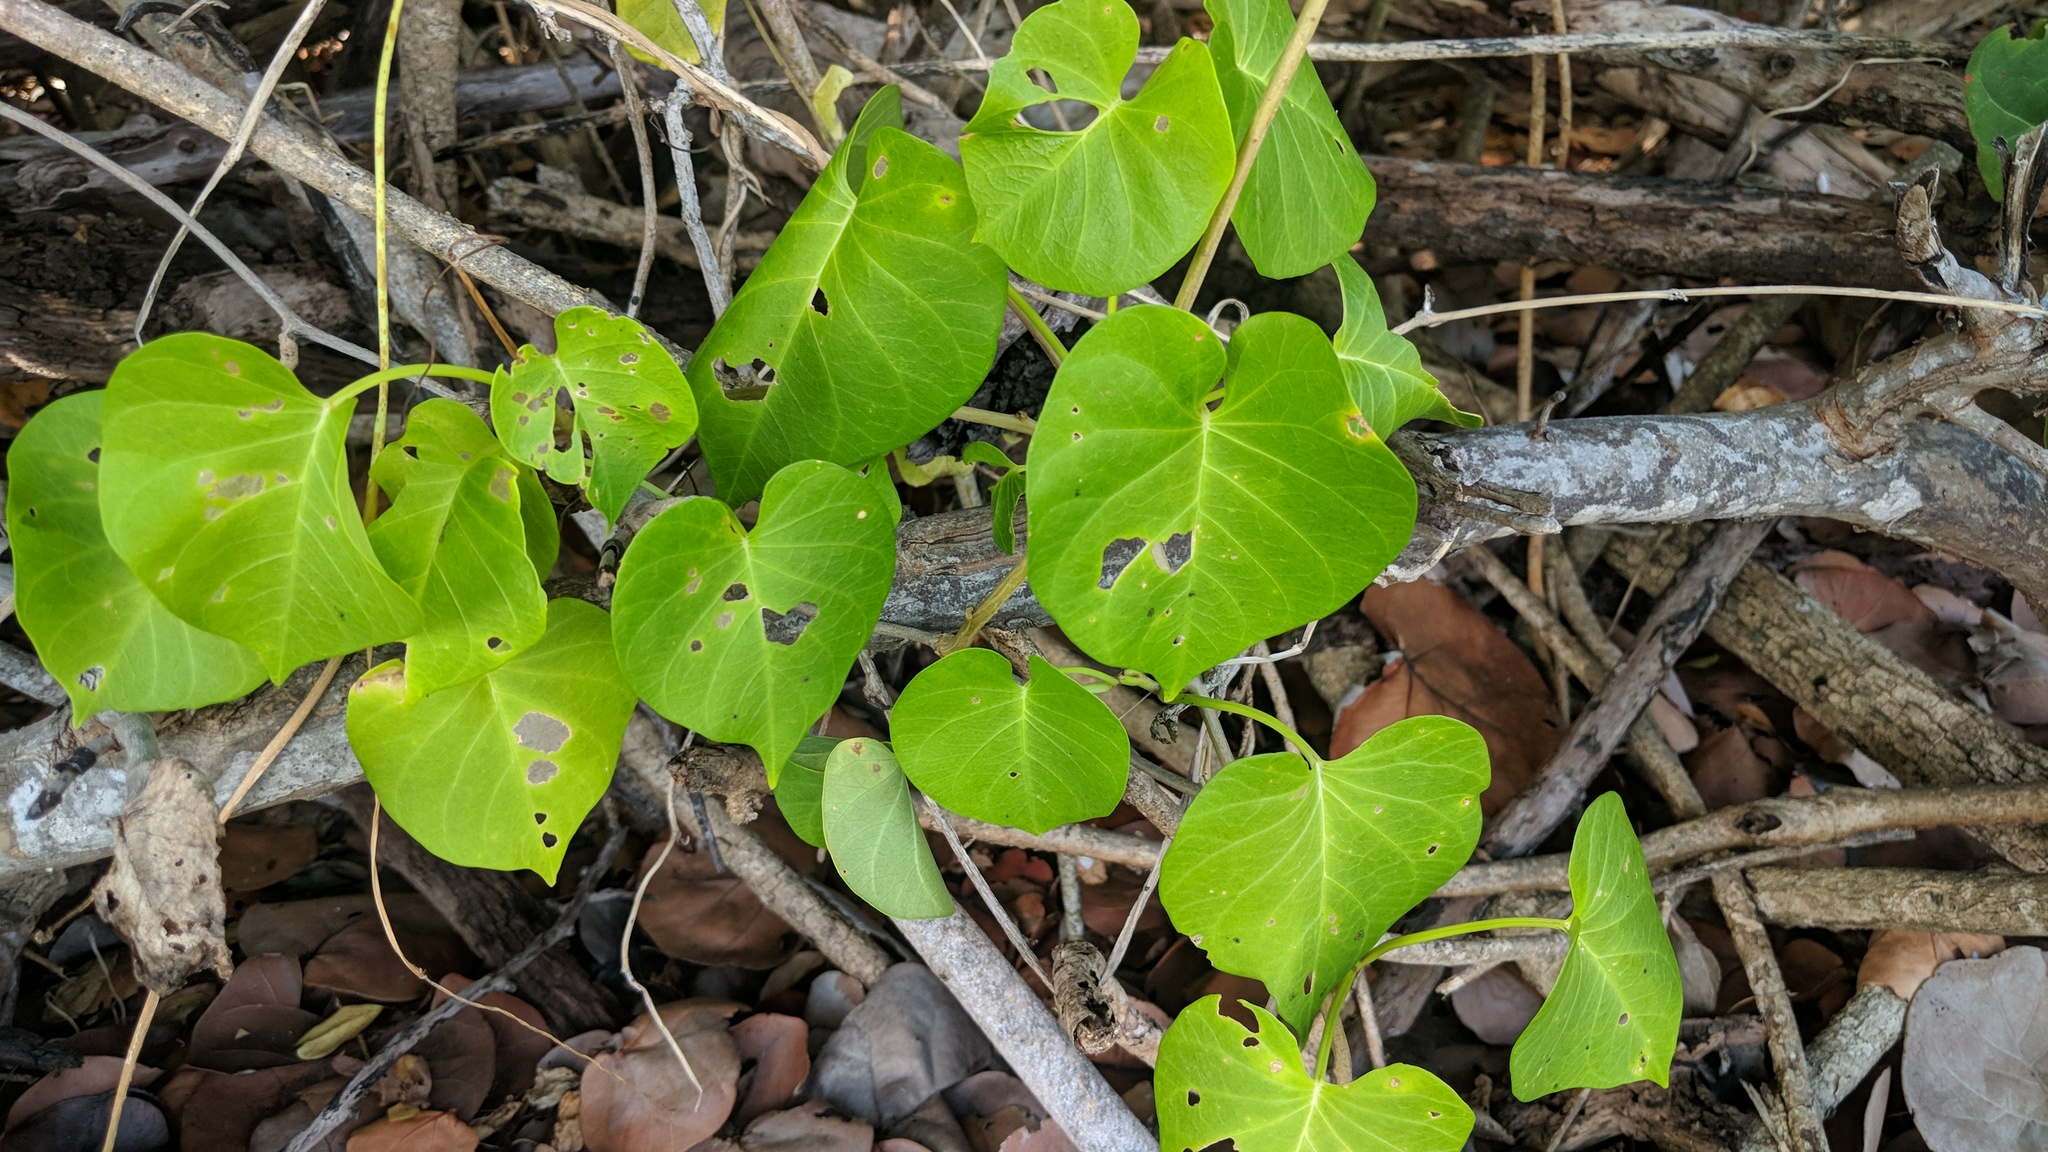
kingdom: Plantae
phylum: Tracheophyta
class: Magnoliopsida
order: Solanales
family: Convolvulaceae
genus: Ipomoea
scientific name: Ipomoea violacea
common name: Beach moonflower
